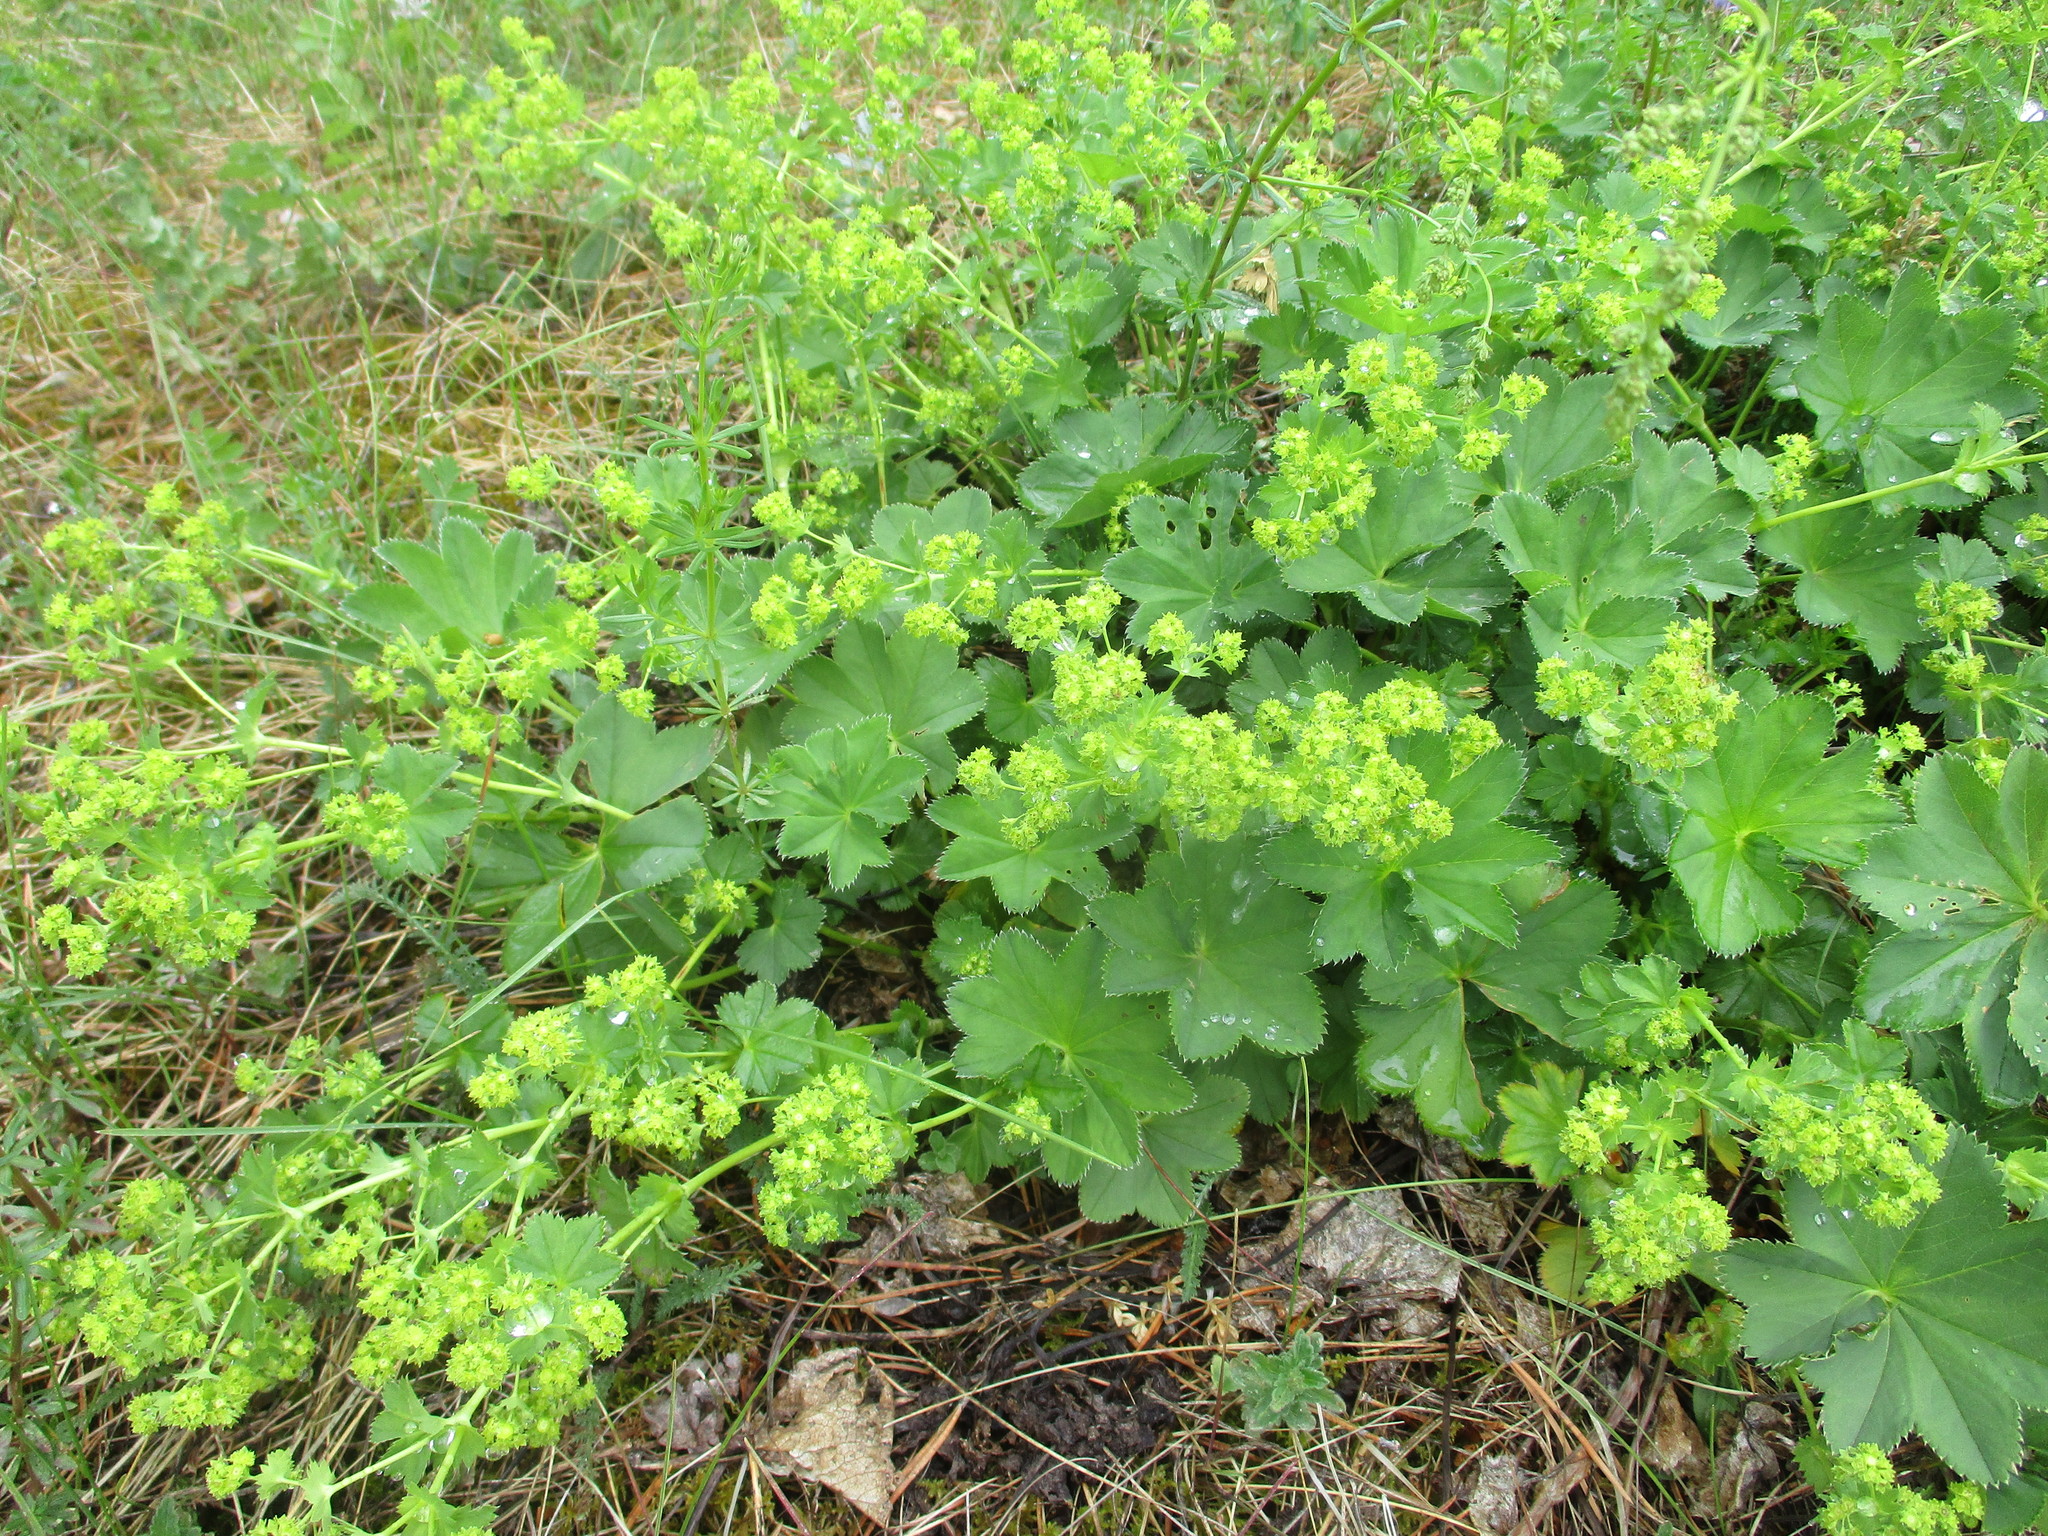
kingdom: Plantae
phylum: Tracheophyta
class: Magnoliopsida
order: Rosales
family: Rosaceae
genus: Alchemilla
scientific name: Alchemilla subcrenata
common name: Broadtooth lady's mantle
